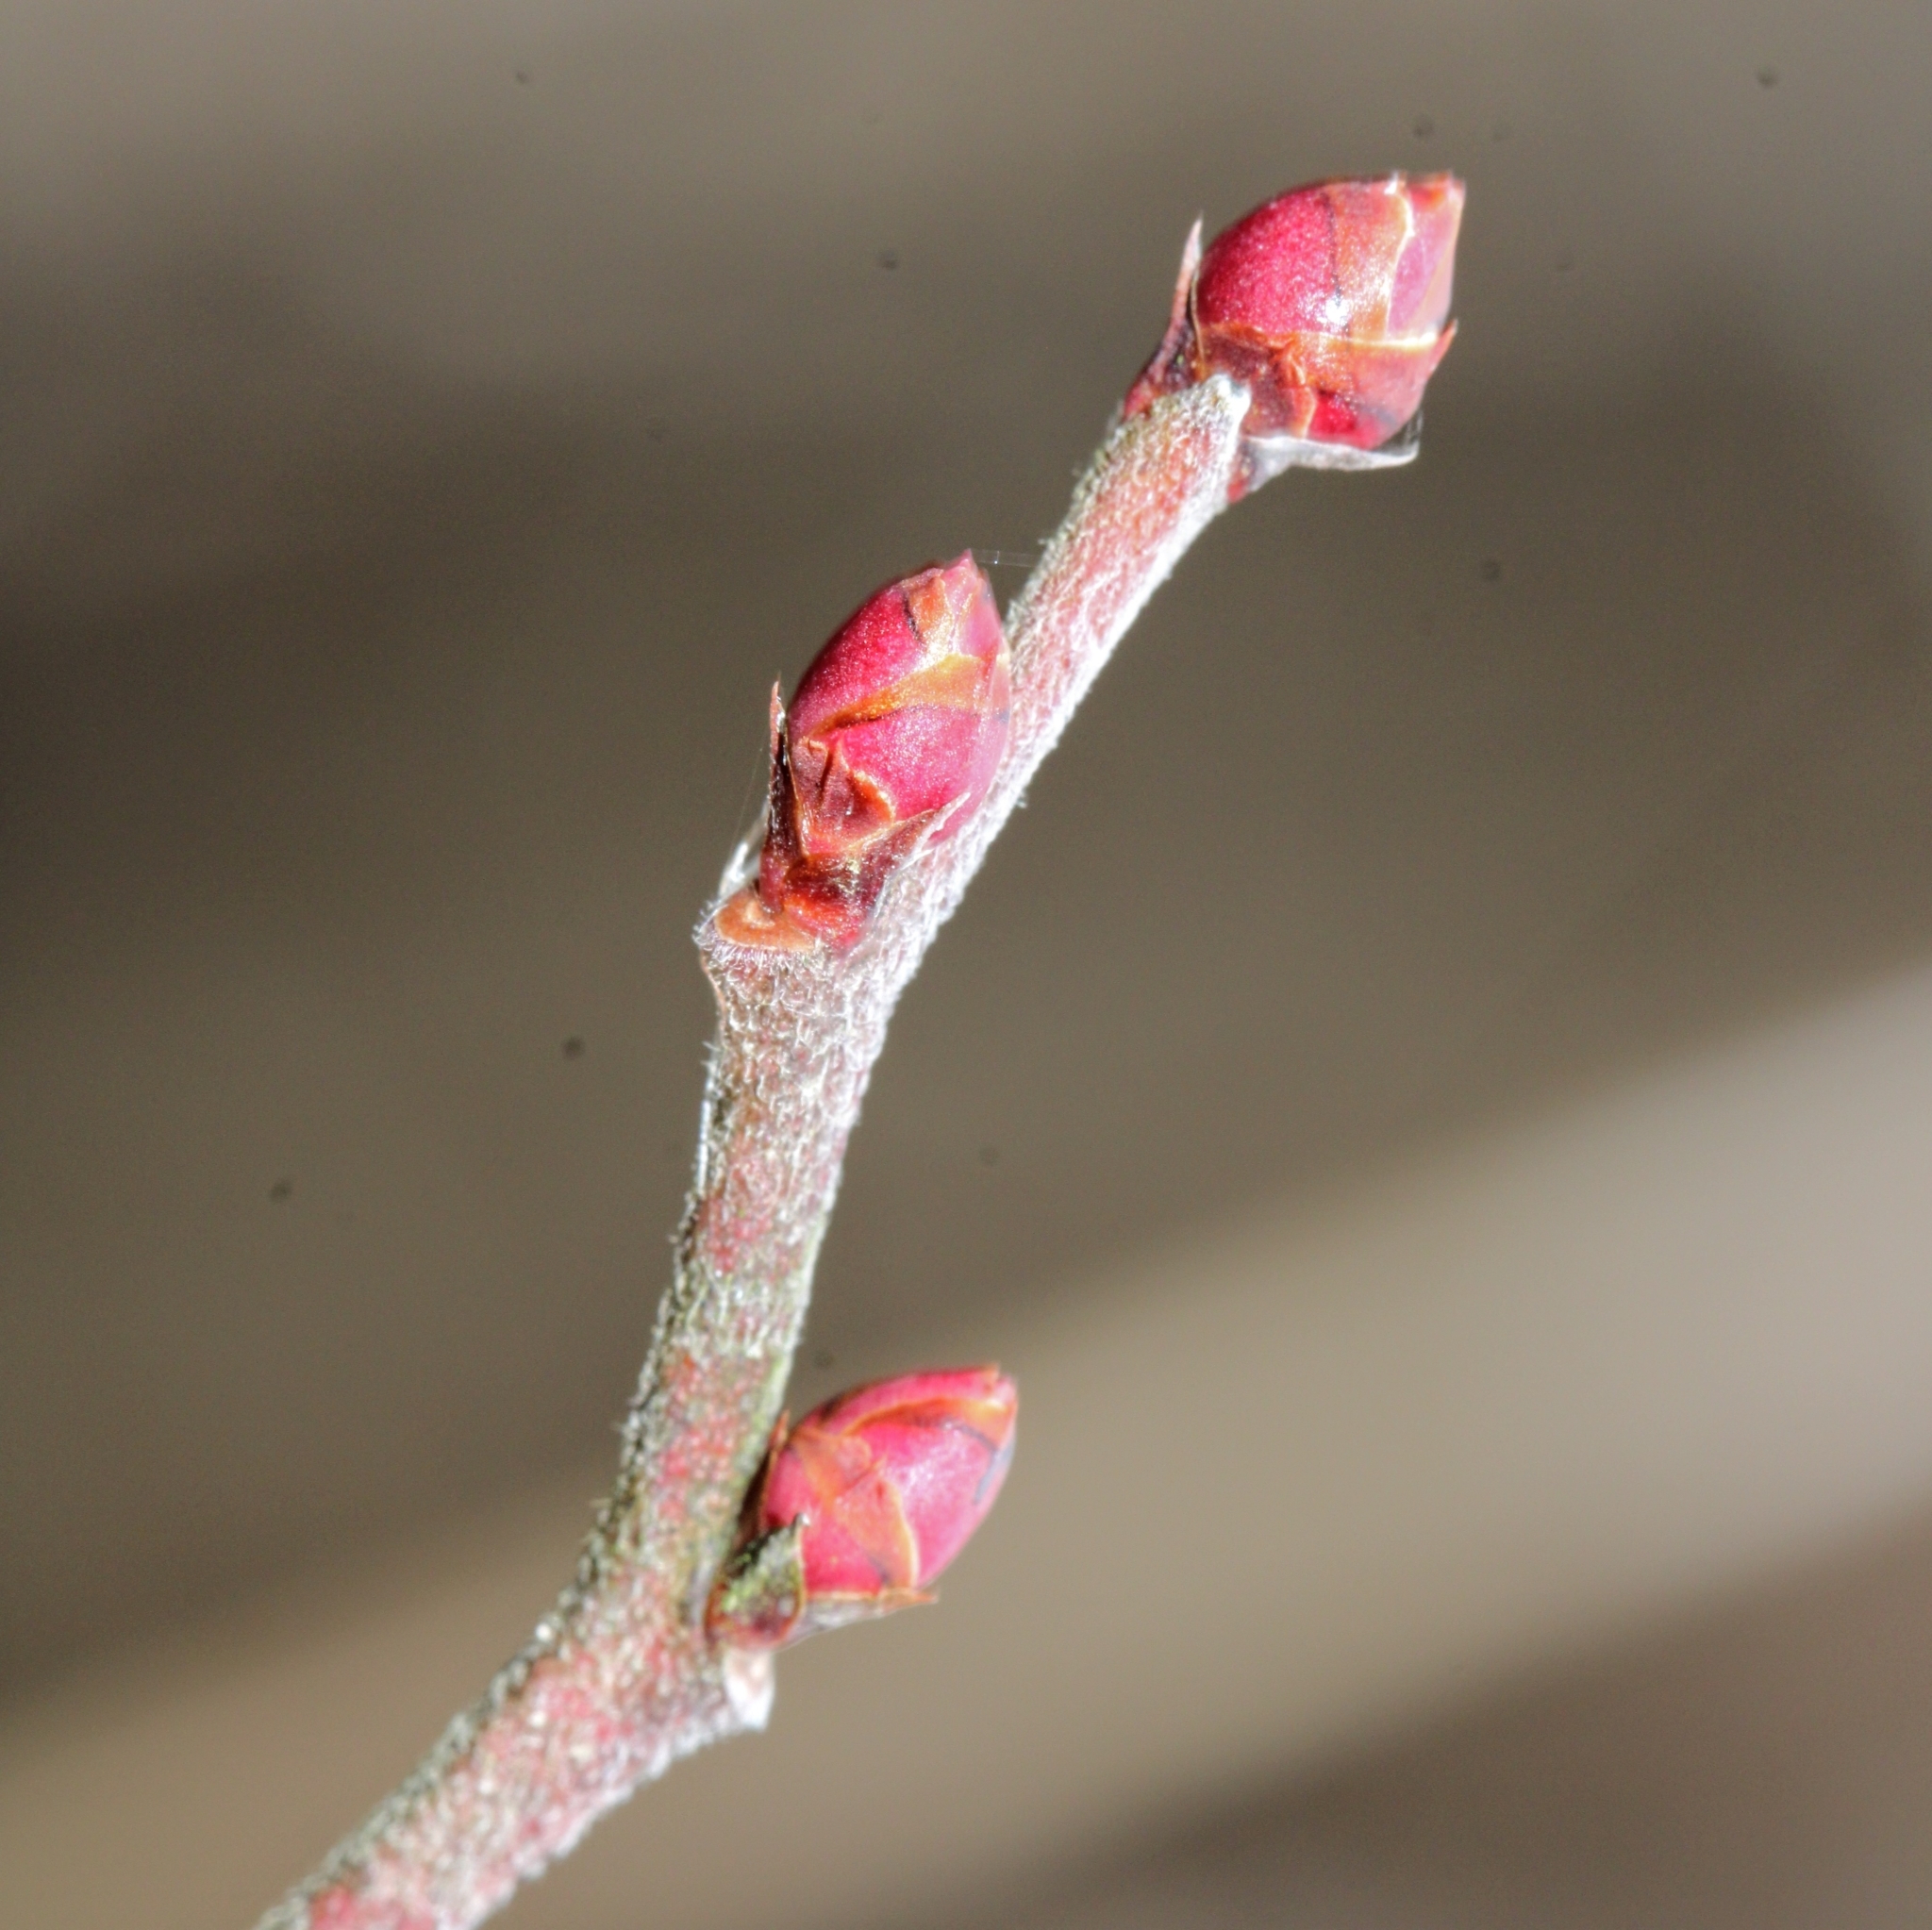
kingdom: Plantae
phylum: Tracheophyta
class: Magnoliopsida
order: Ericales
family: Ericaceae
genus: Vaccinium
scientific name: Vaccinium corymbosum
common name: Blueberry
